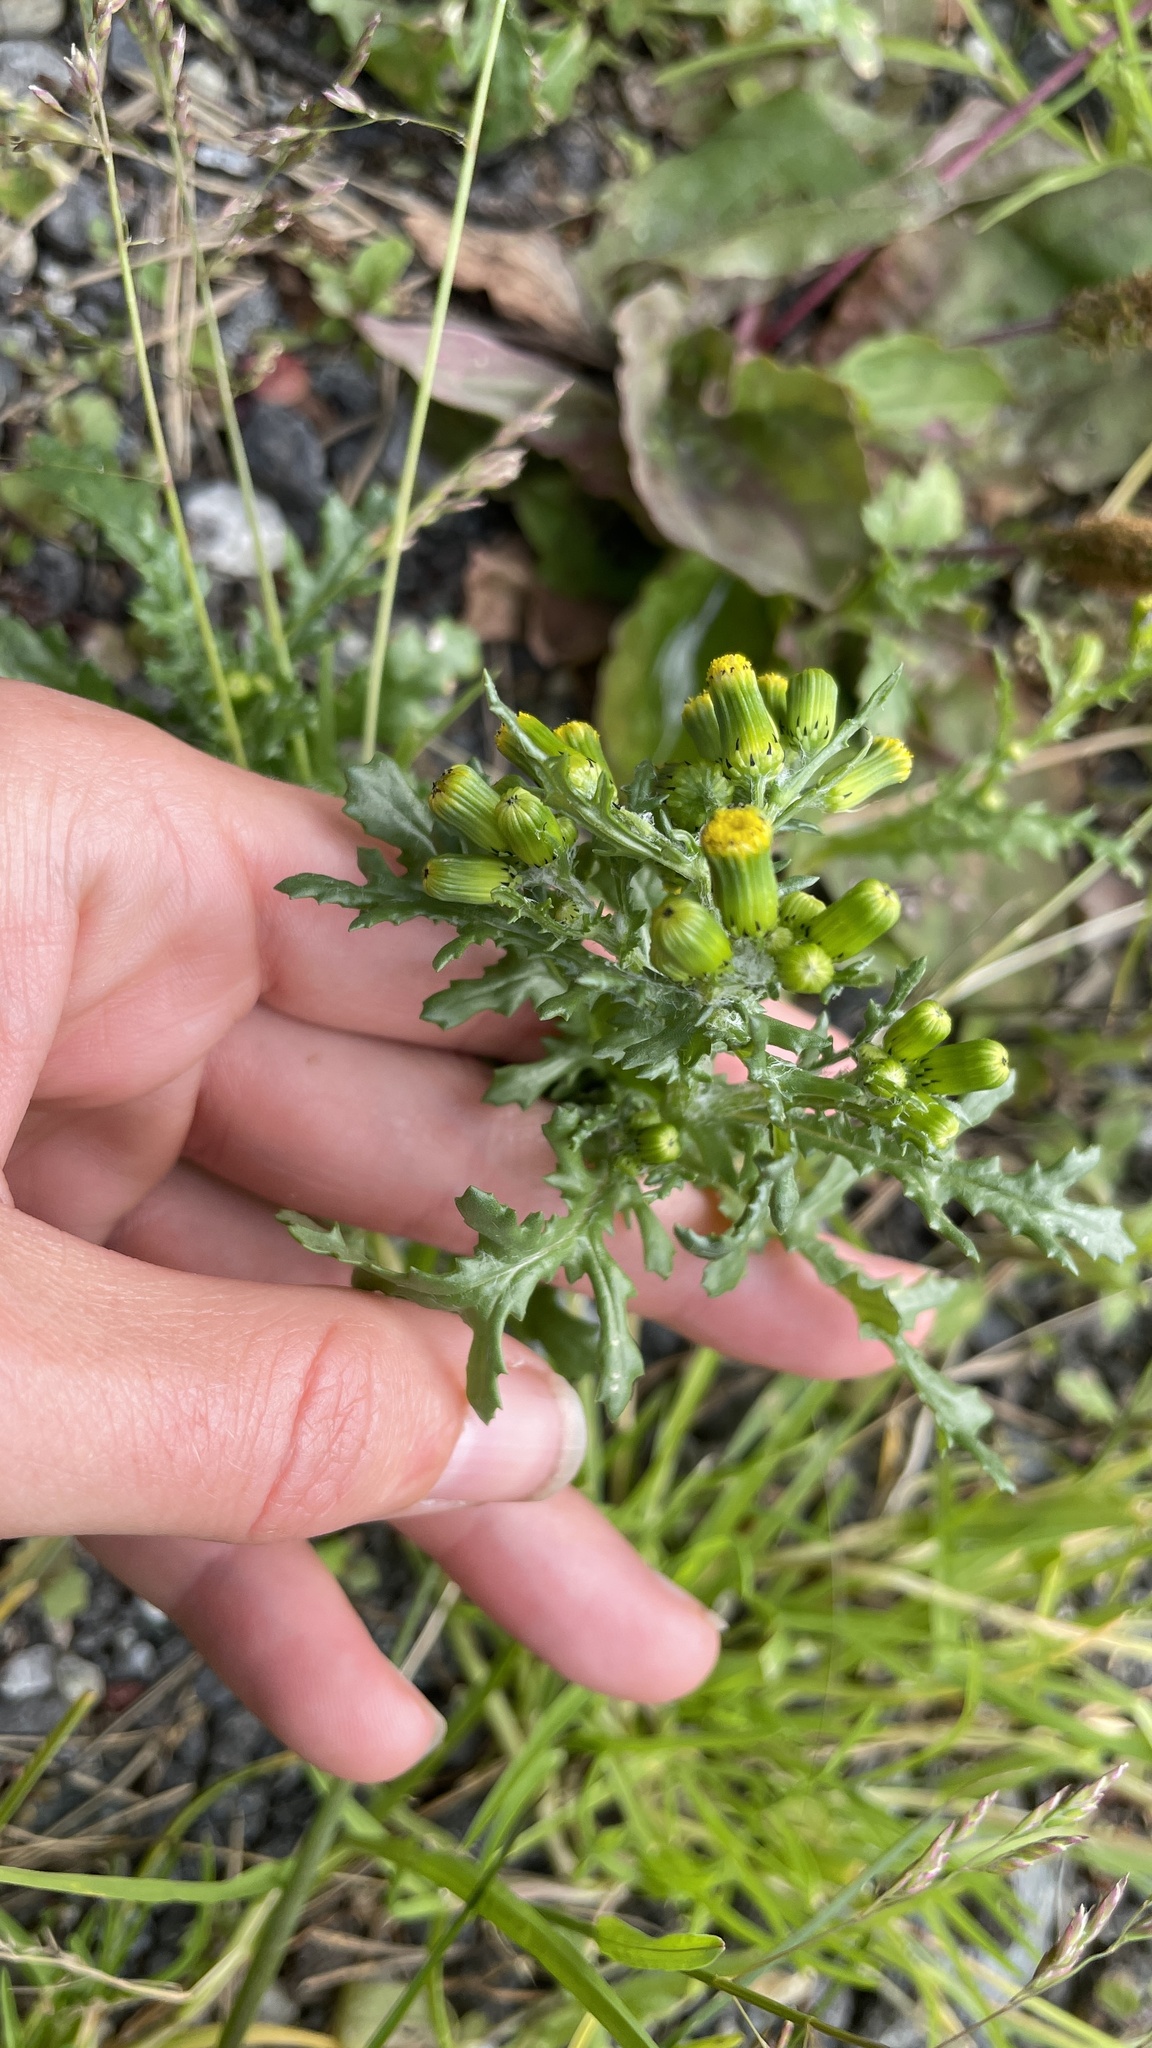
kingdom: Plantae
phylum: Tracheophyta
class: Magnoliopsida
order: Asterales
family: Asteraceae
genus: Senecio
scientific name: Senecio vulgaris
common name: Old-man-in-the-spring
